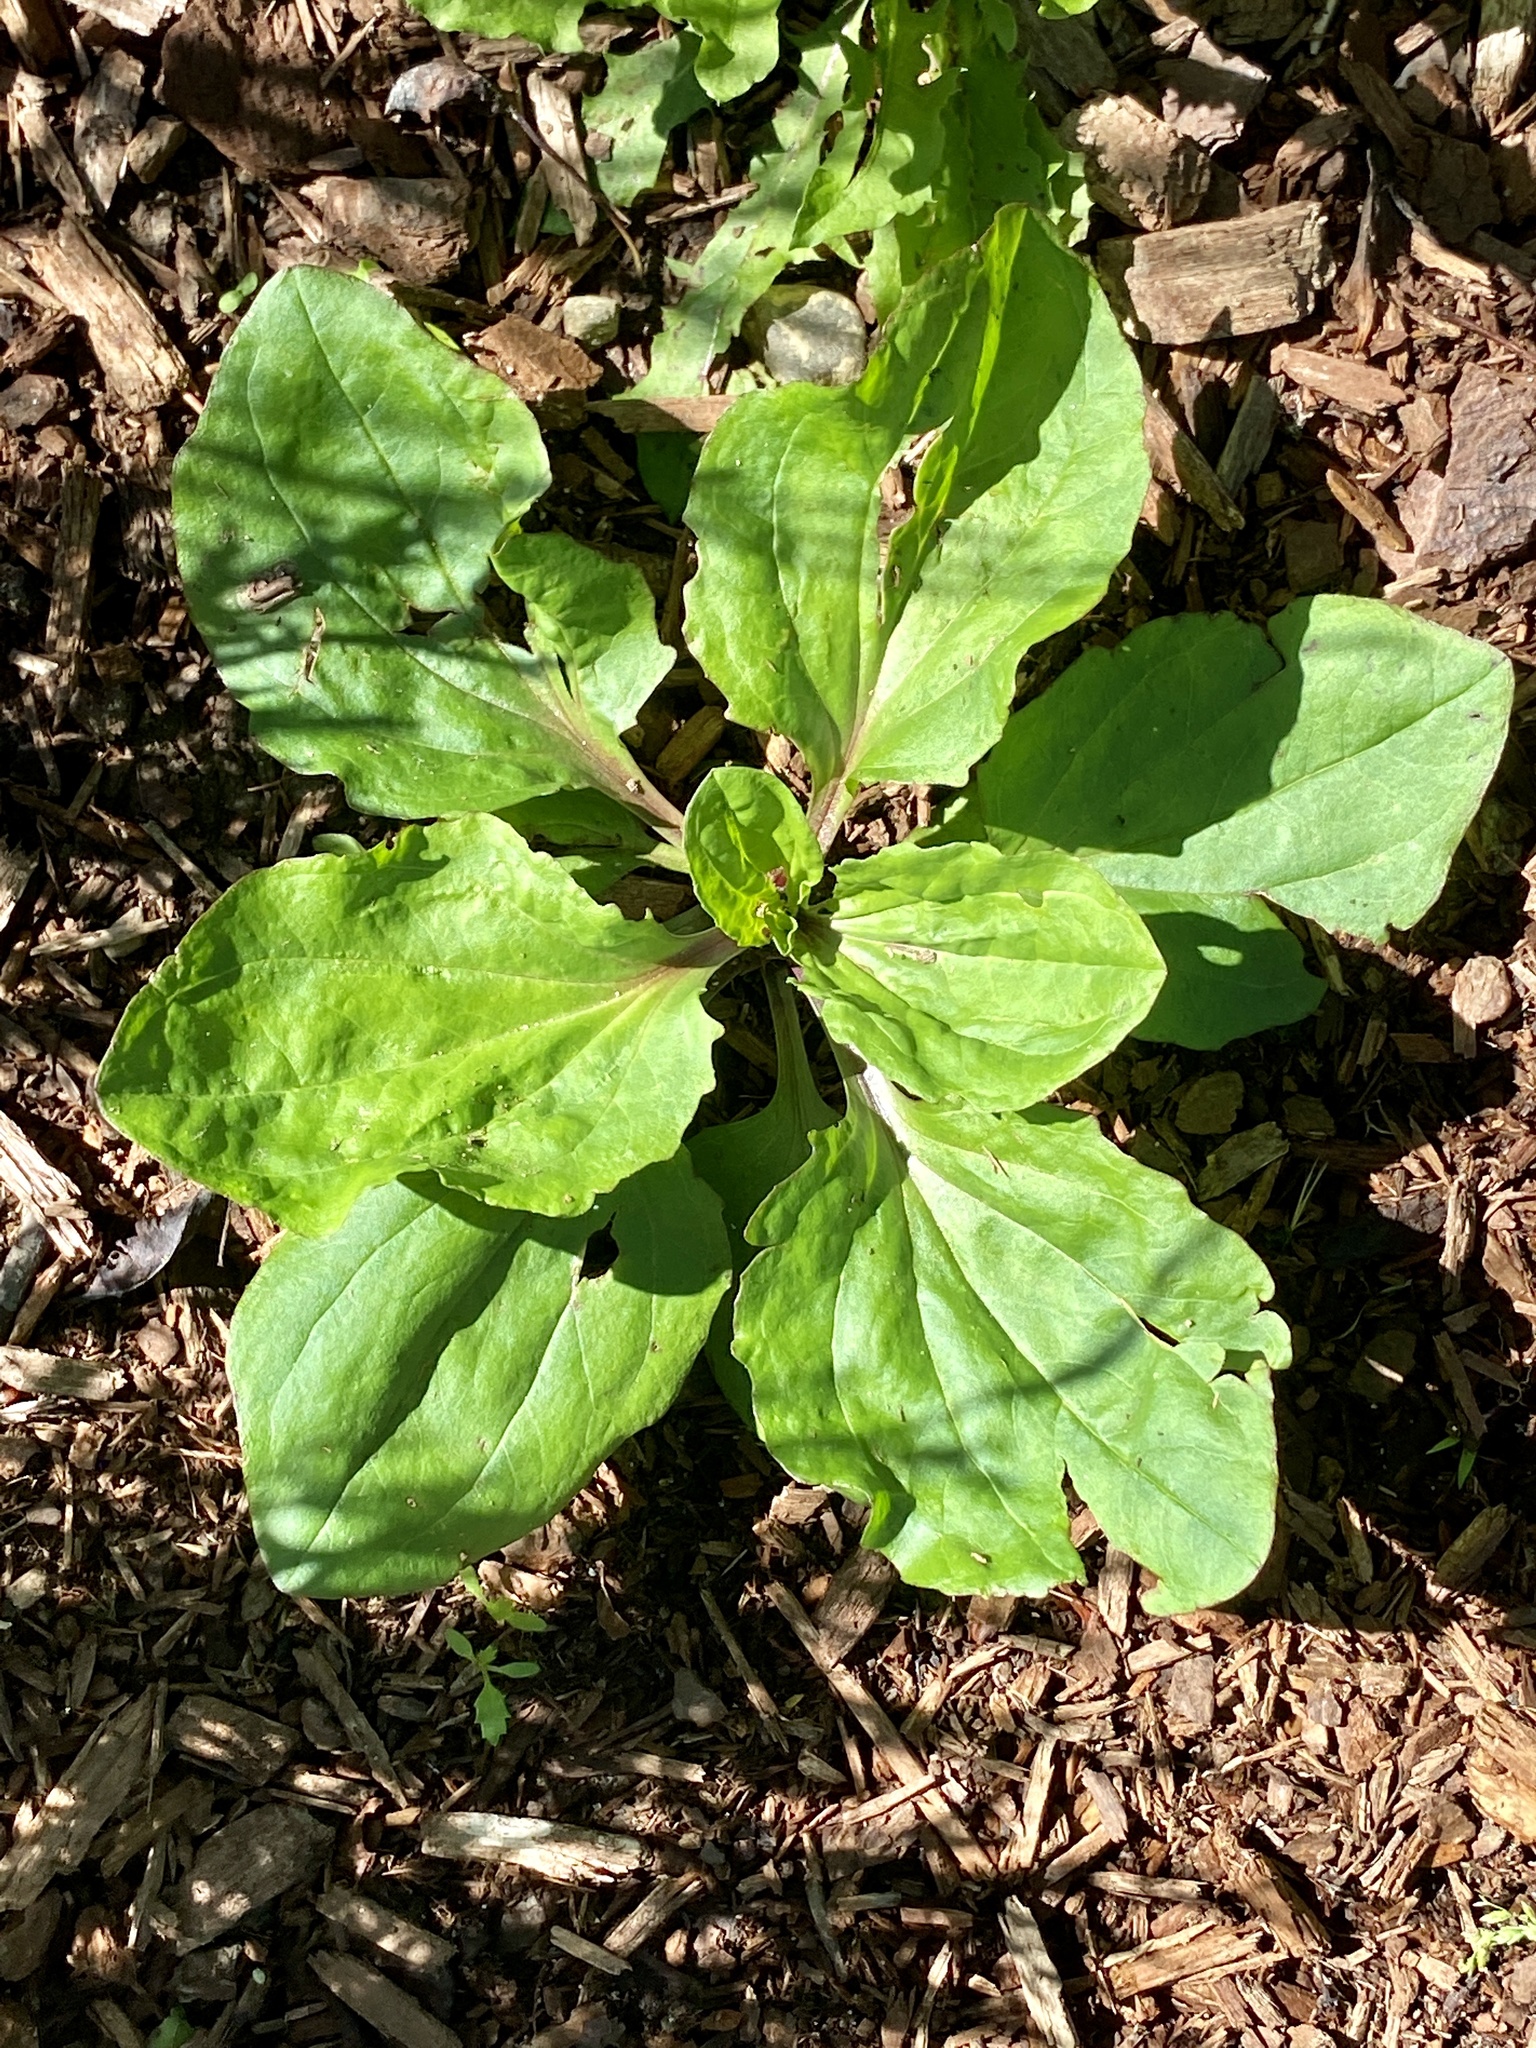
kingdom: Plantae
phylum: Tracheophyta
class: Magnoliopsida
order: Lamiales
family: Plantaginaceae
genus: Plantago
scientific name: Plantago rugelii
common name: American plantain
